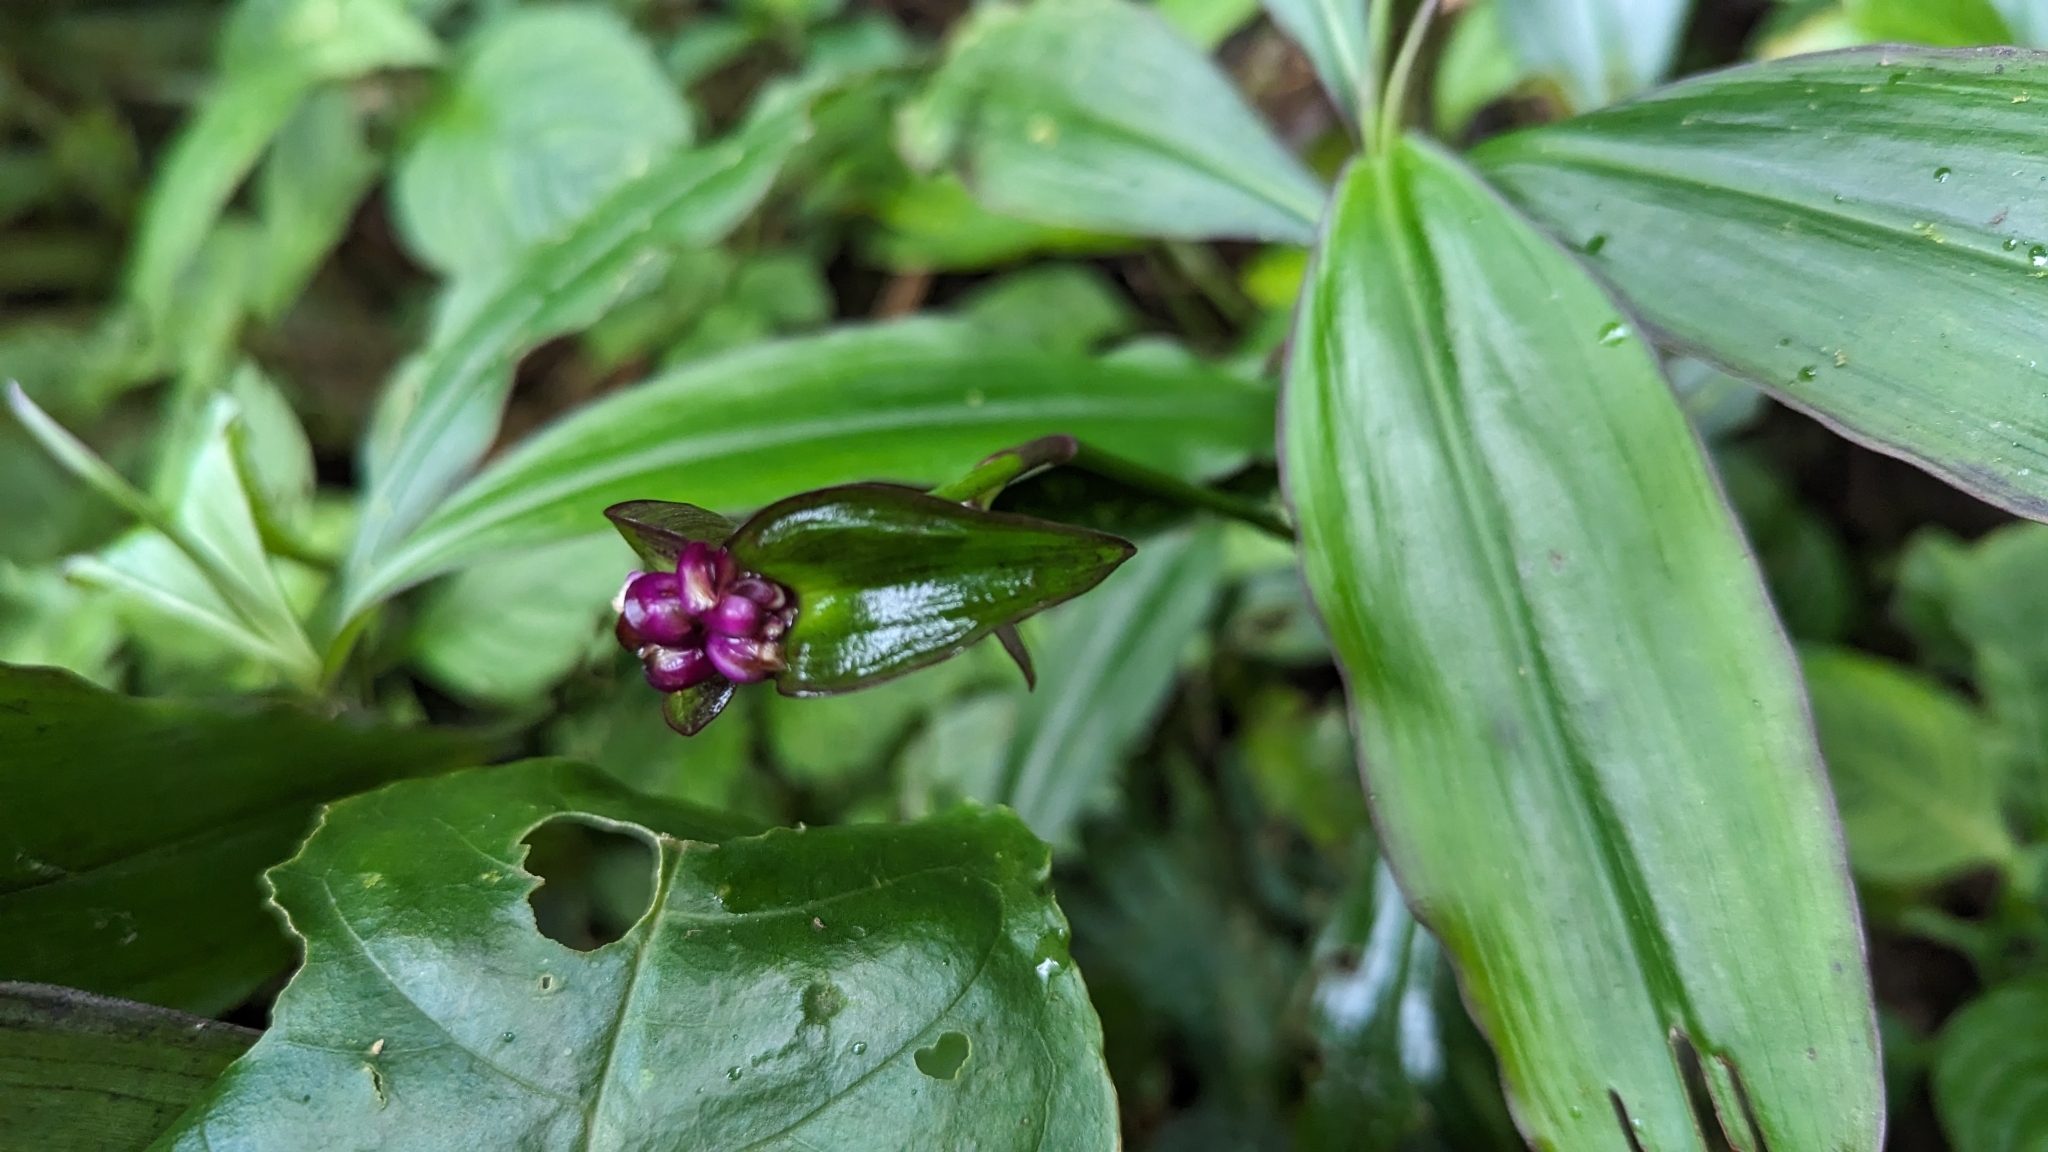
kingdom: Plantae
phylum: Tracheophyta
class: Liliopsida
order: Commelinales
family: Commelinaceae
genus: Tradescantia
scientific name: Tradescantia zanonia
